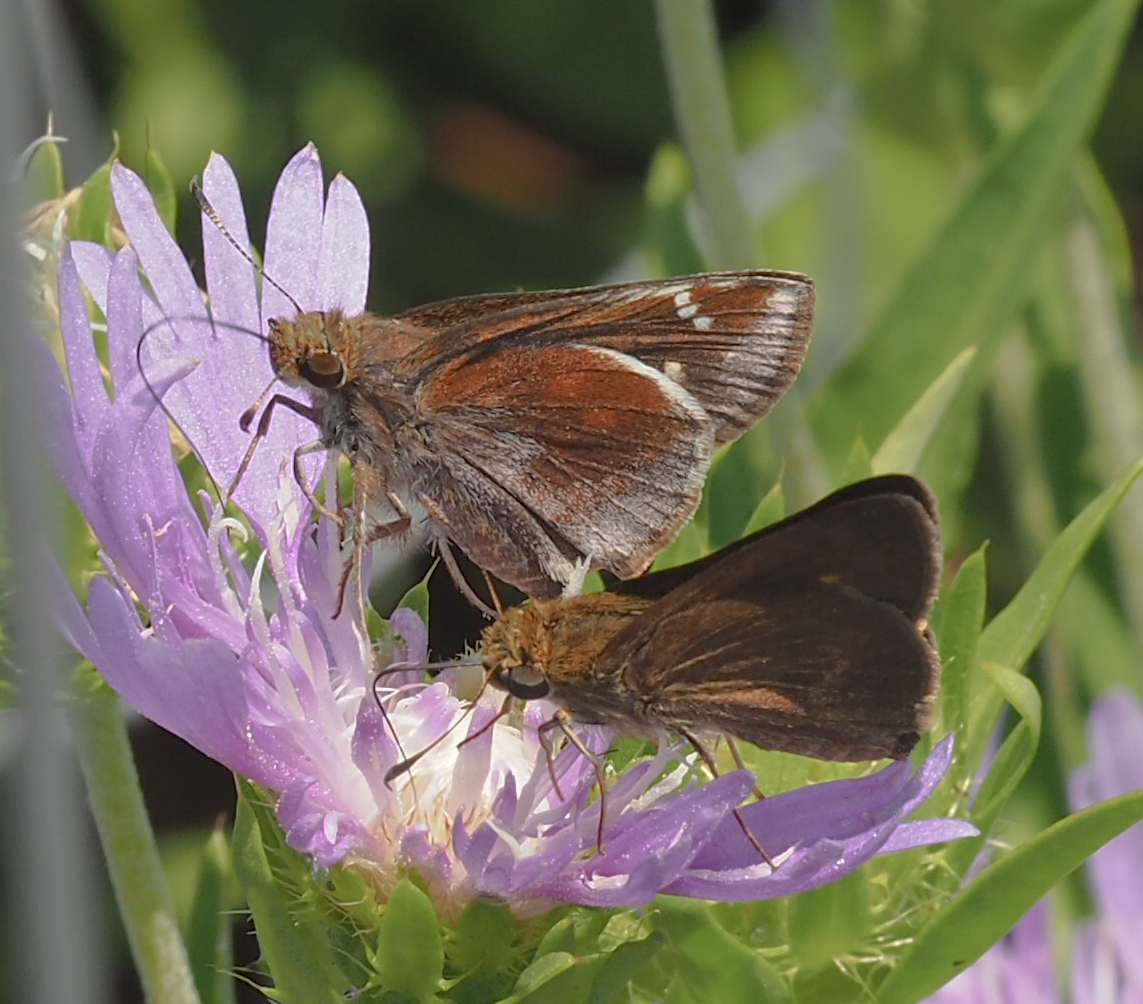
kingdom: Animalia
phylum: Arthropoda
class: Insecta
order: Lepidoptera
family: Hesperiidae
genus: Lon
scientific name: Lon zabulon
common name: Zabulon skipper
